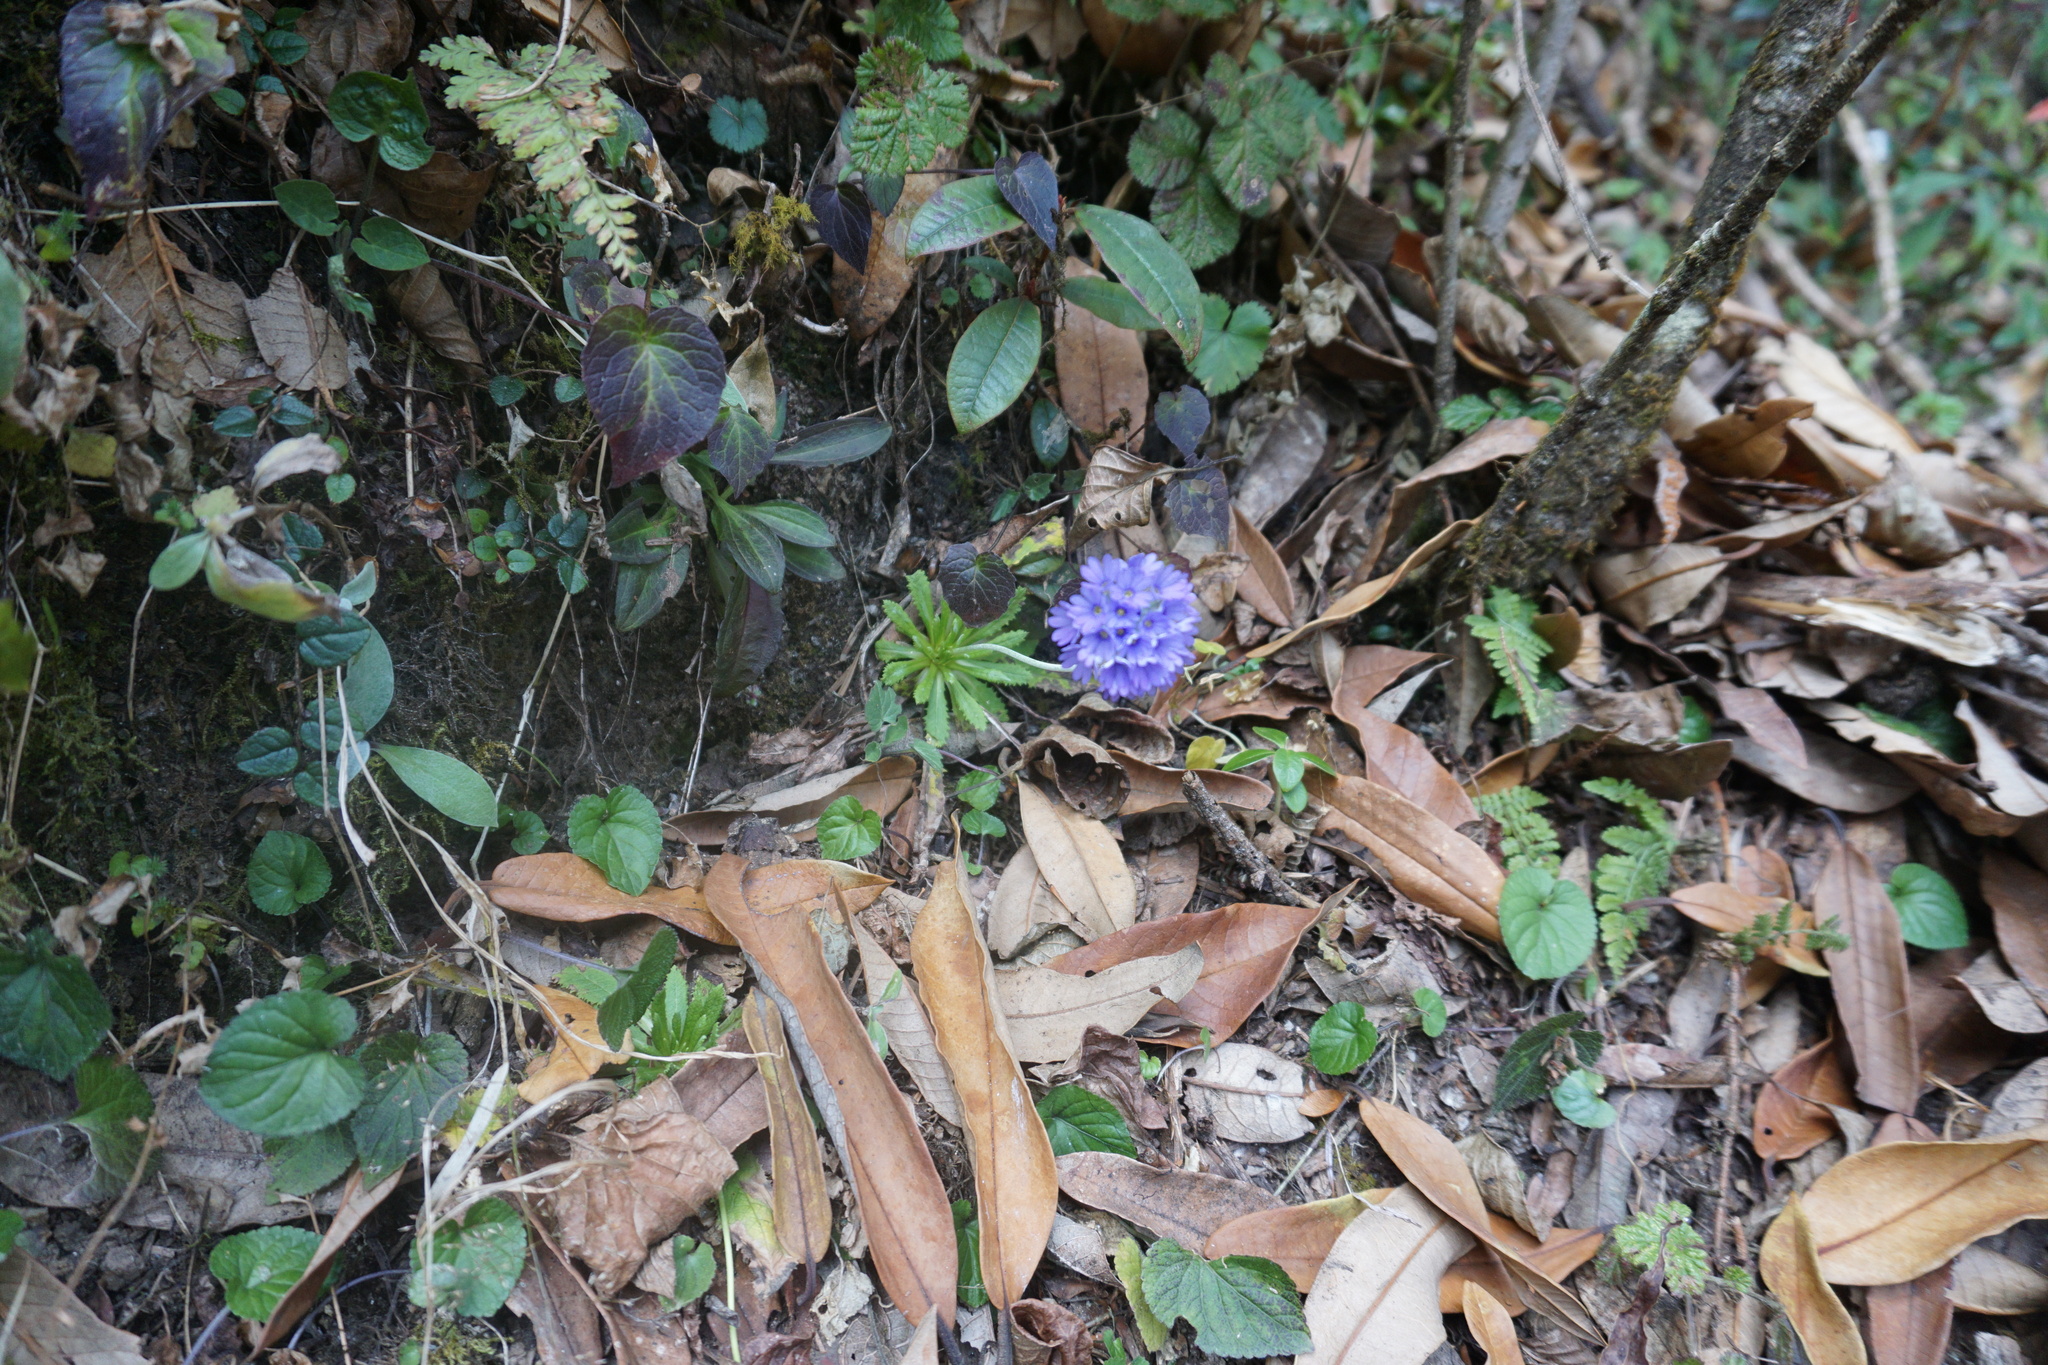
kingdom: Plantae
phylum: Tracheophyta
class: Magnoliopsida
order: Ericales
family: Primulaceae
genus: Primula
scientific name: Primula glomerata
